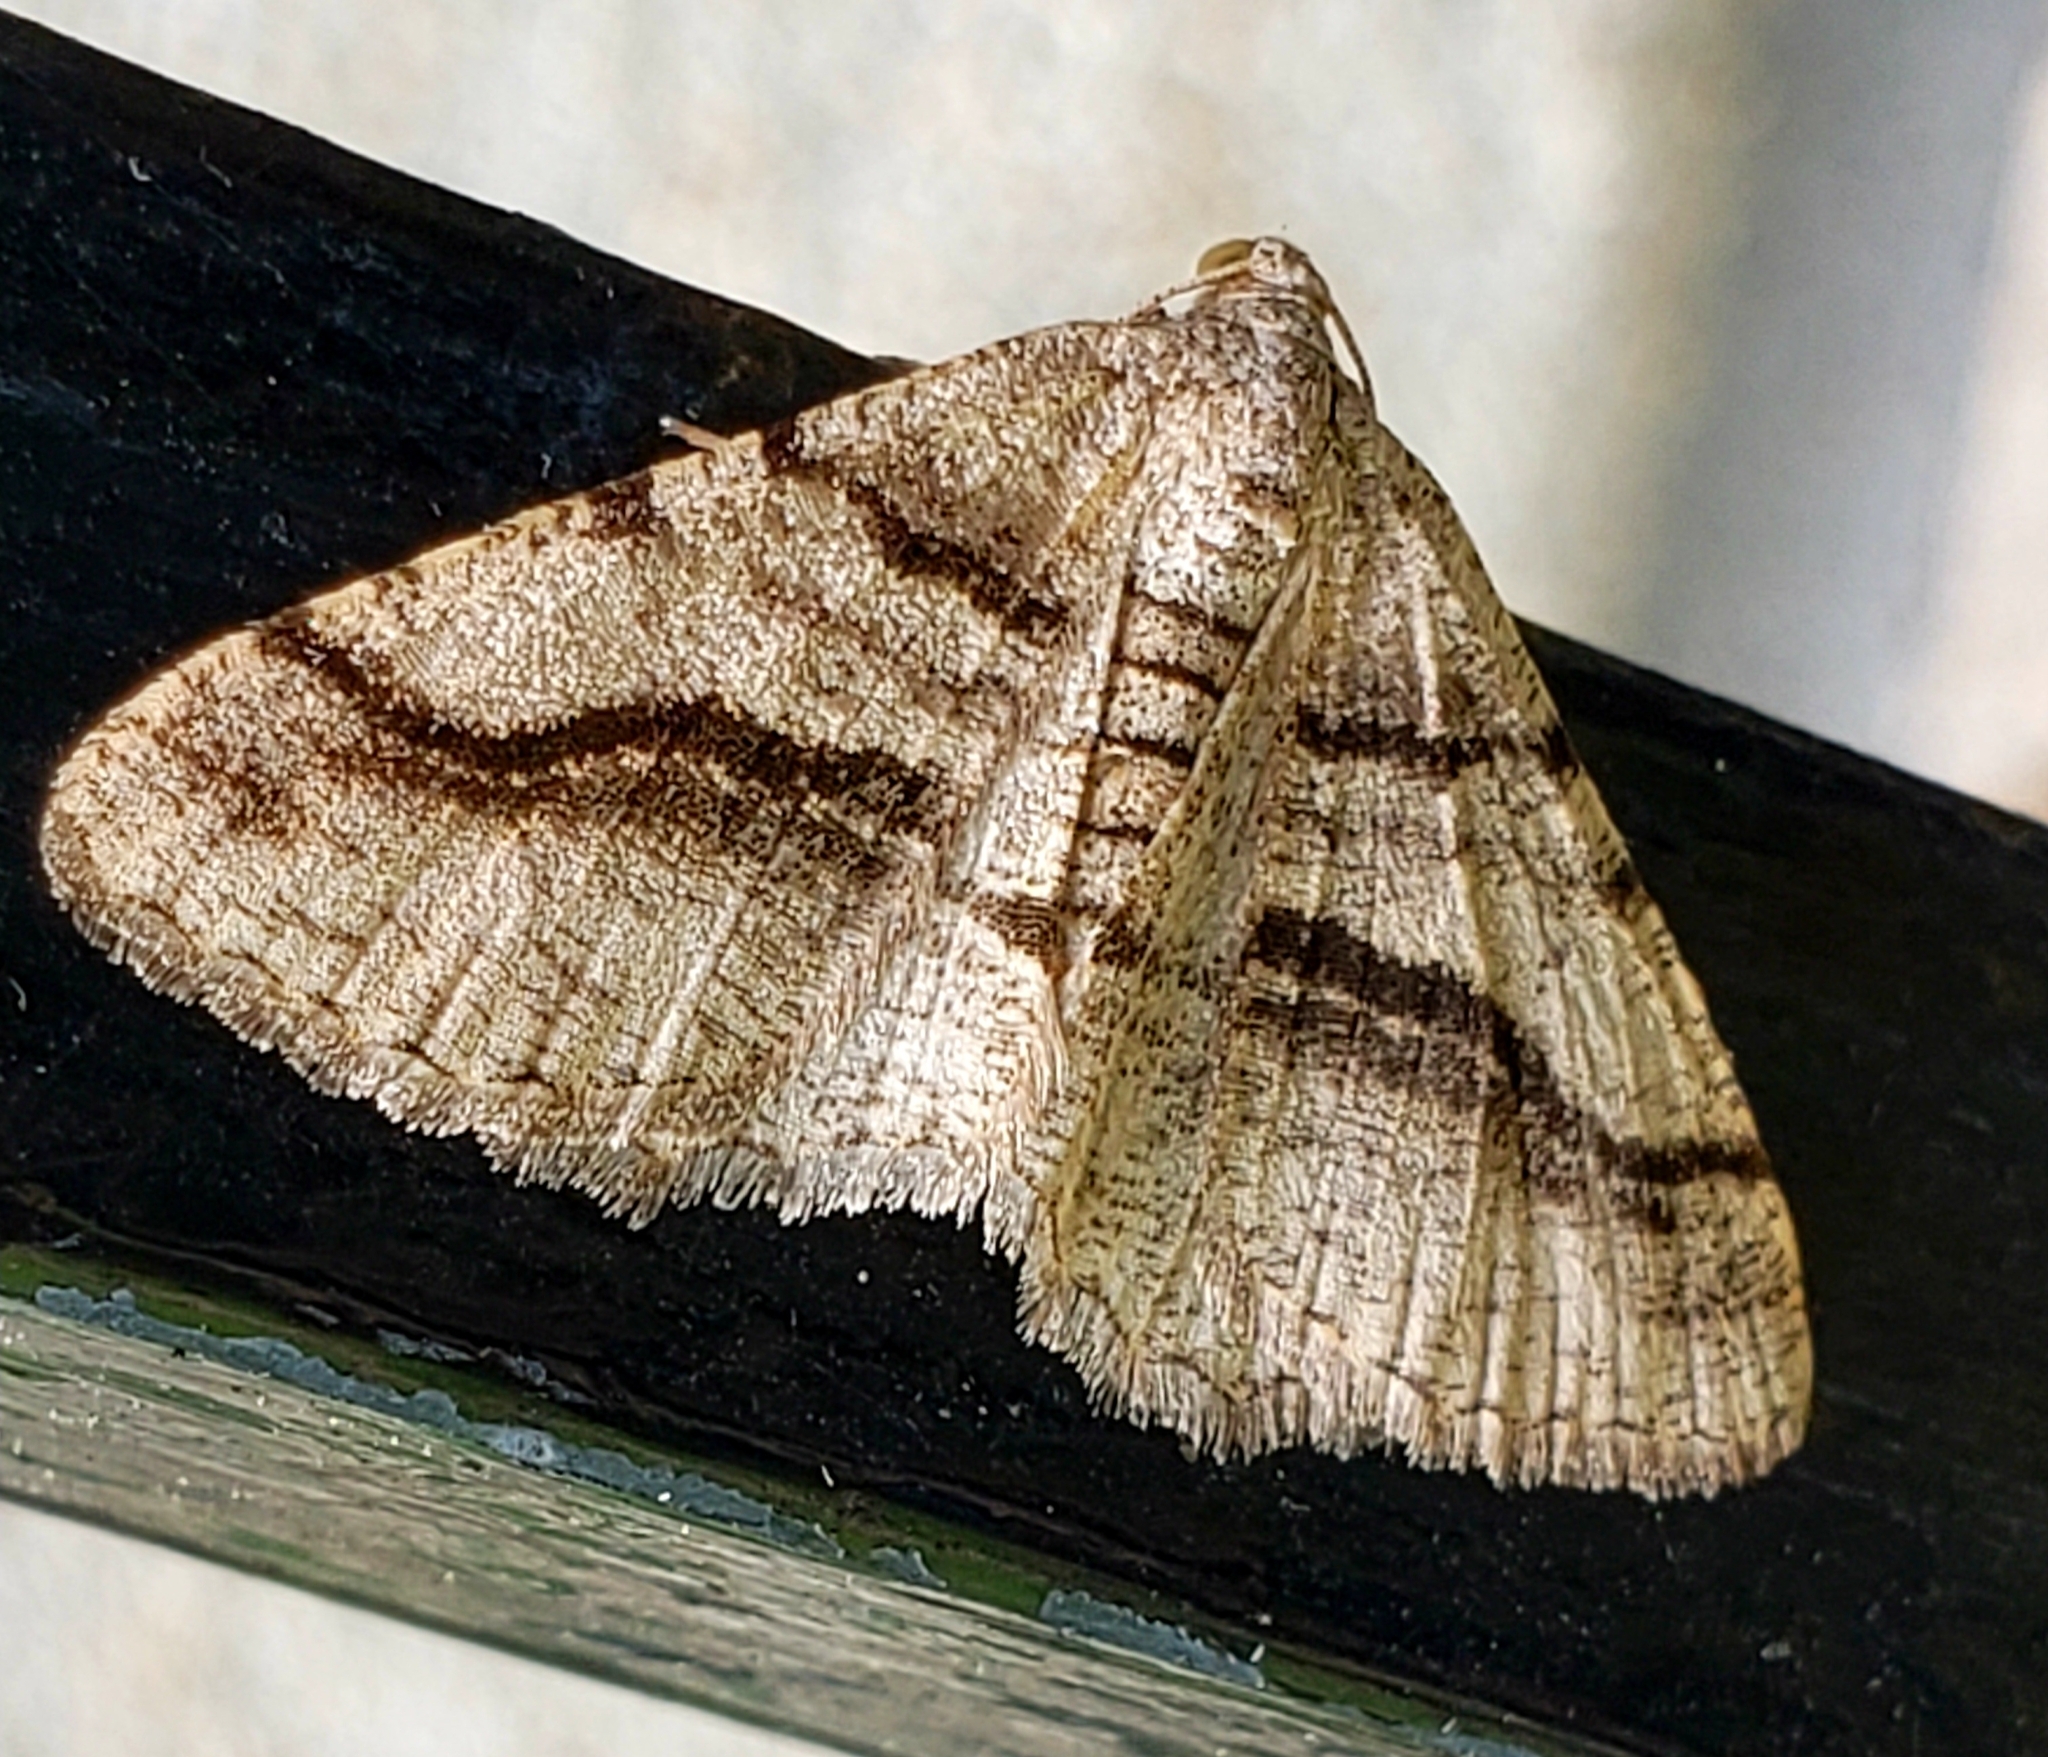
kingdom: Animalia
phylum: Arthropoda
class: Insecta
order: Lepidoptera
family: Geometridae
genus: Digrammia
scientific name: Digrammia continuata
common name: Curve-lined angle
